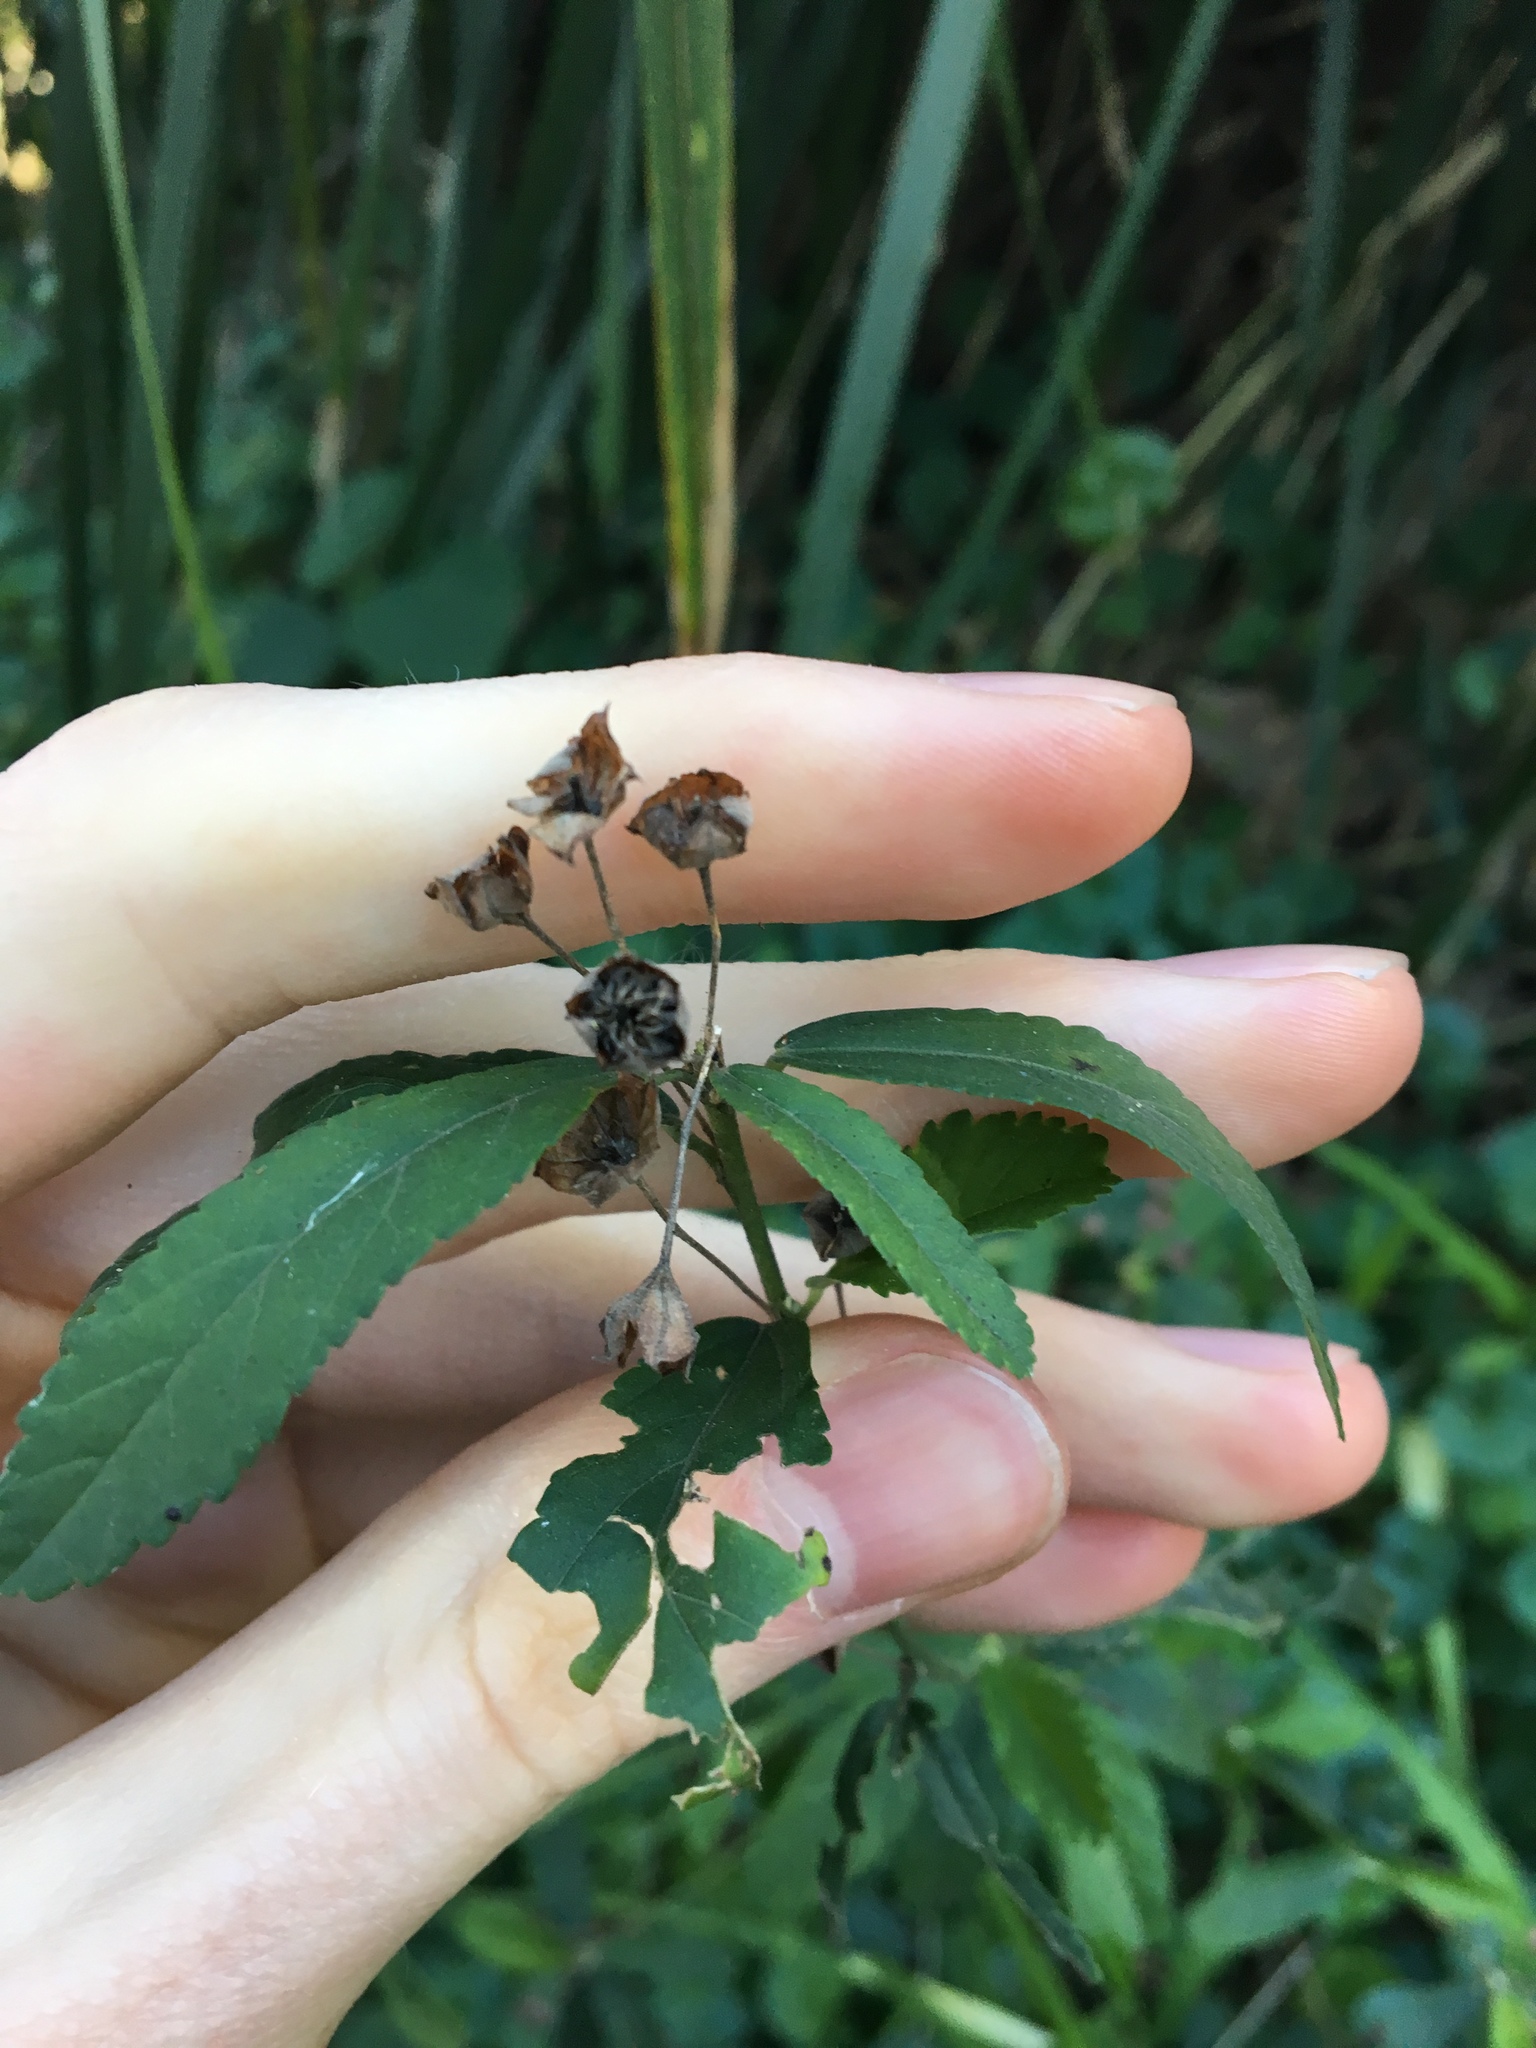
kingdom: Plantae
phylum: Tracheophyta
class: Magnoliopsida
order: Malvales
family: Malvaceae
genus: Sida
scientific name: Sida rhombifolia
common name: Queensland-hemp
